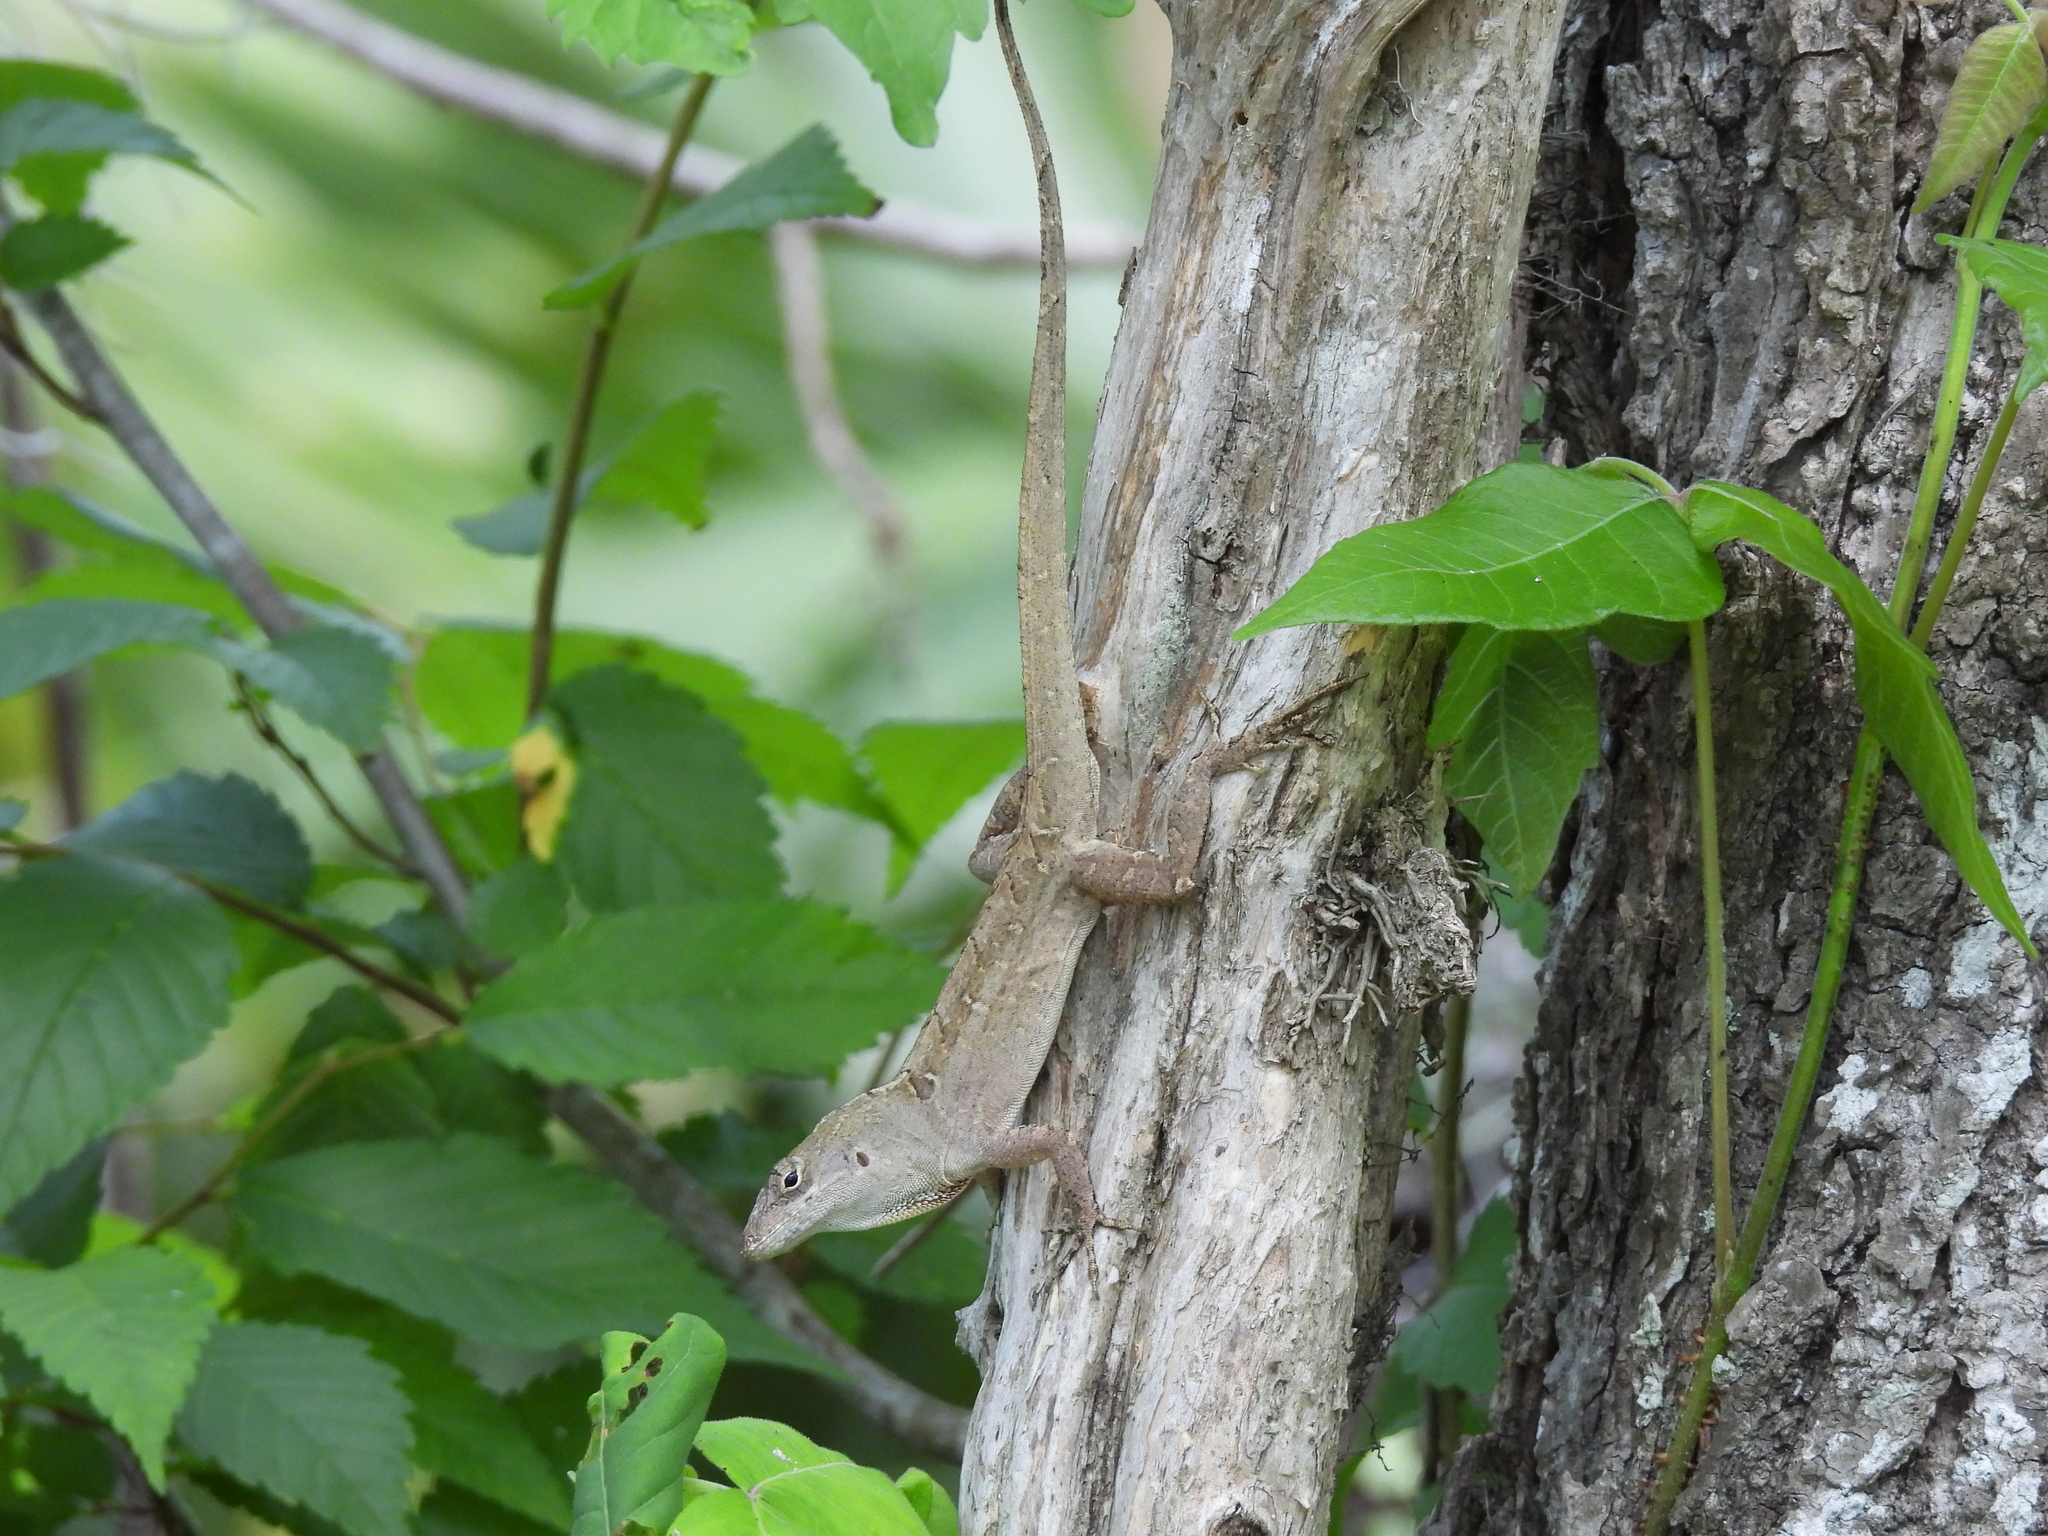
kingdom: Animalia
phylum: Chordata
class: Squamata
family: Dactyloidae
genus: Anolis
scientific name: Anolis sagrei
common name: Brown anole
